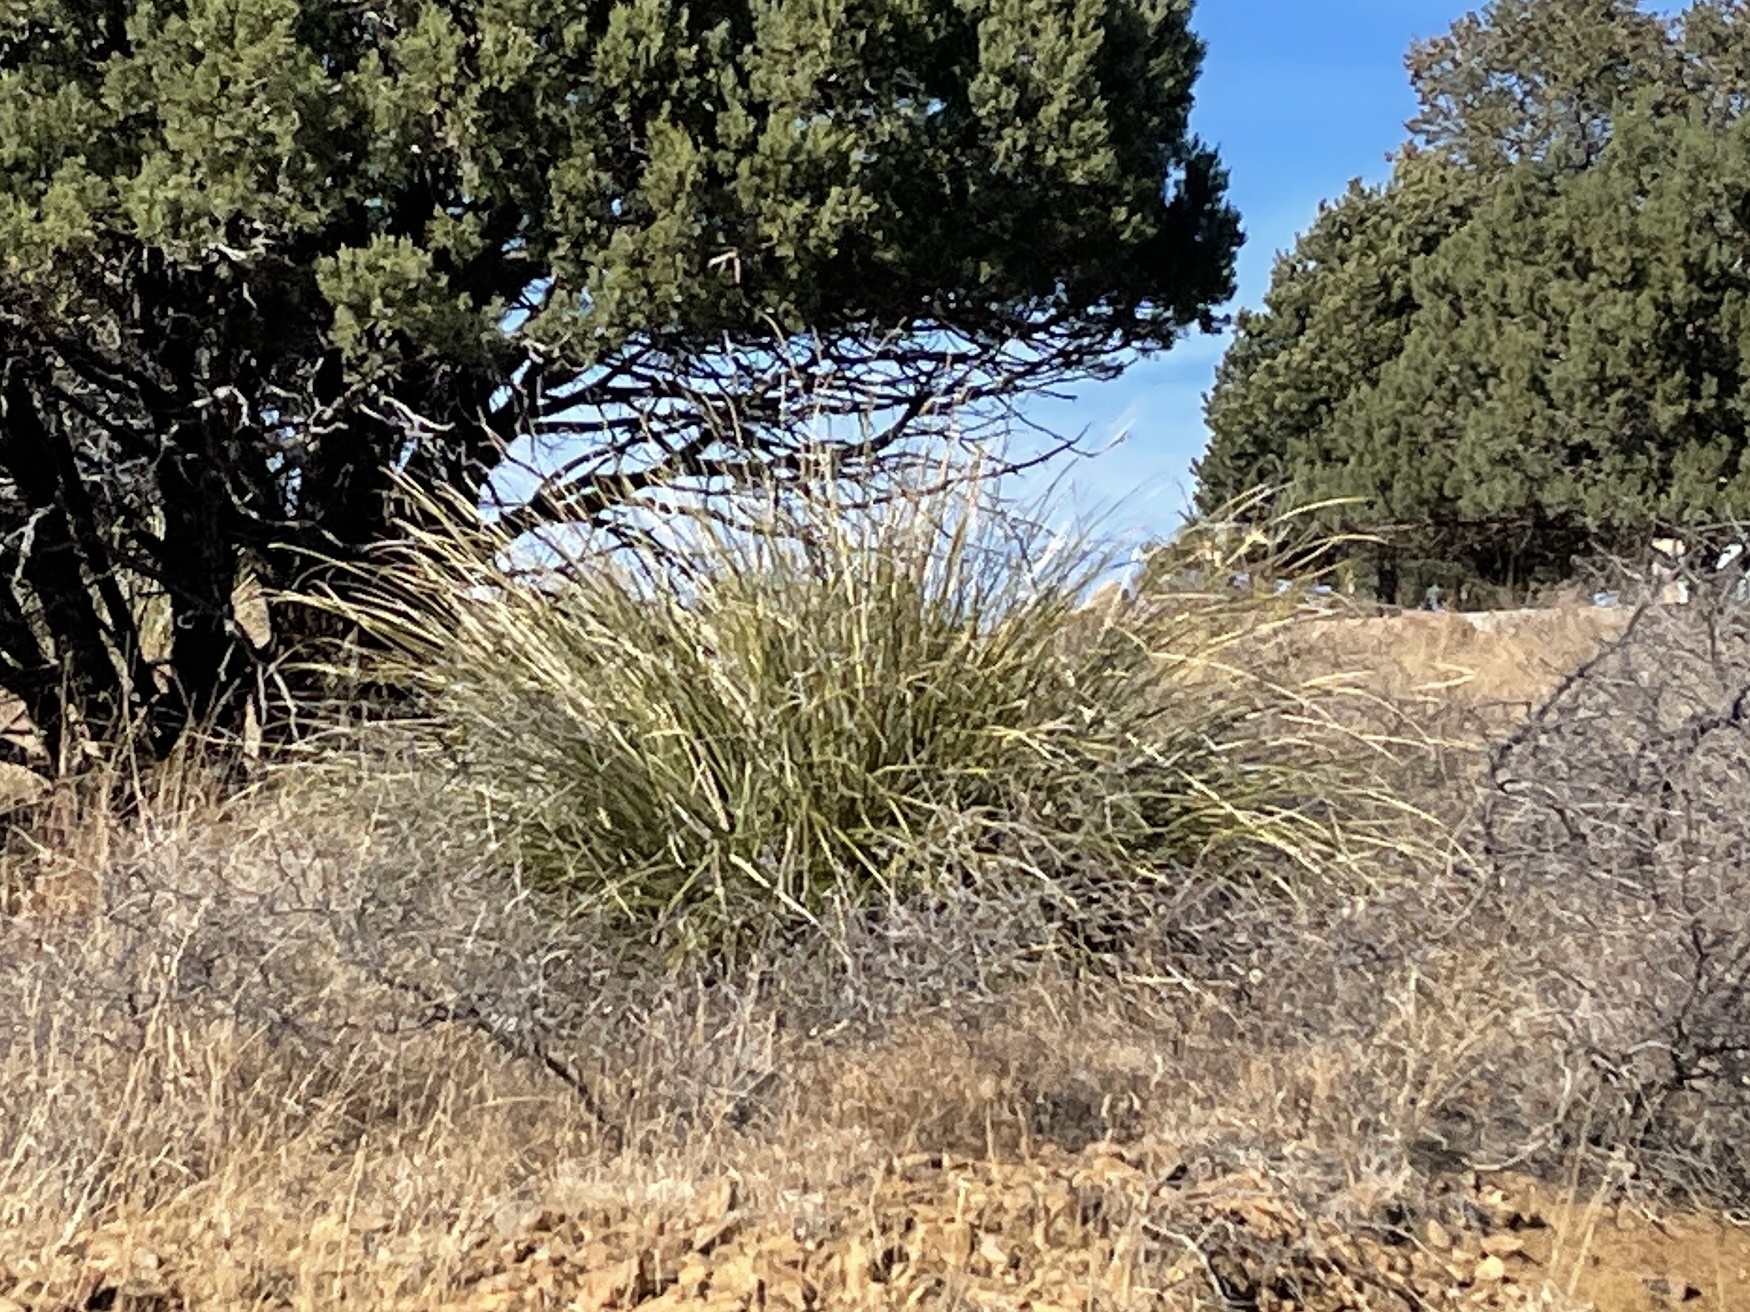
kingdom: Plantae
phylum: Tracheophyta
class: Liliopsida
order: Asparagales
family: Asparagaceae
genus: Nolina
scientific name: Nolina microcarpa
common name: Bear-grass
